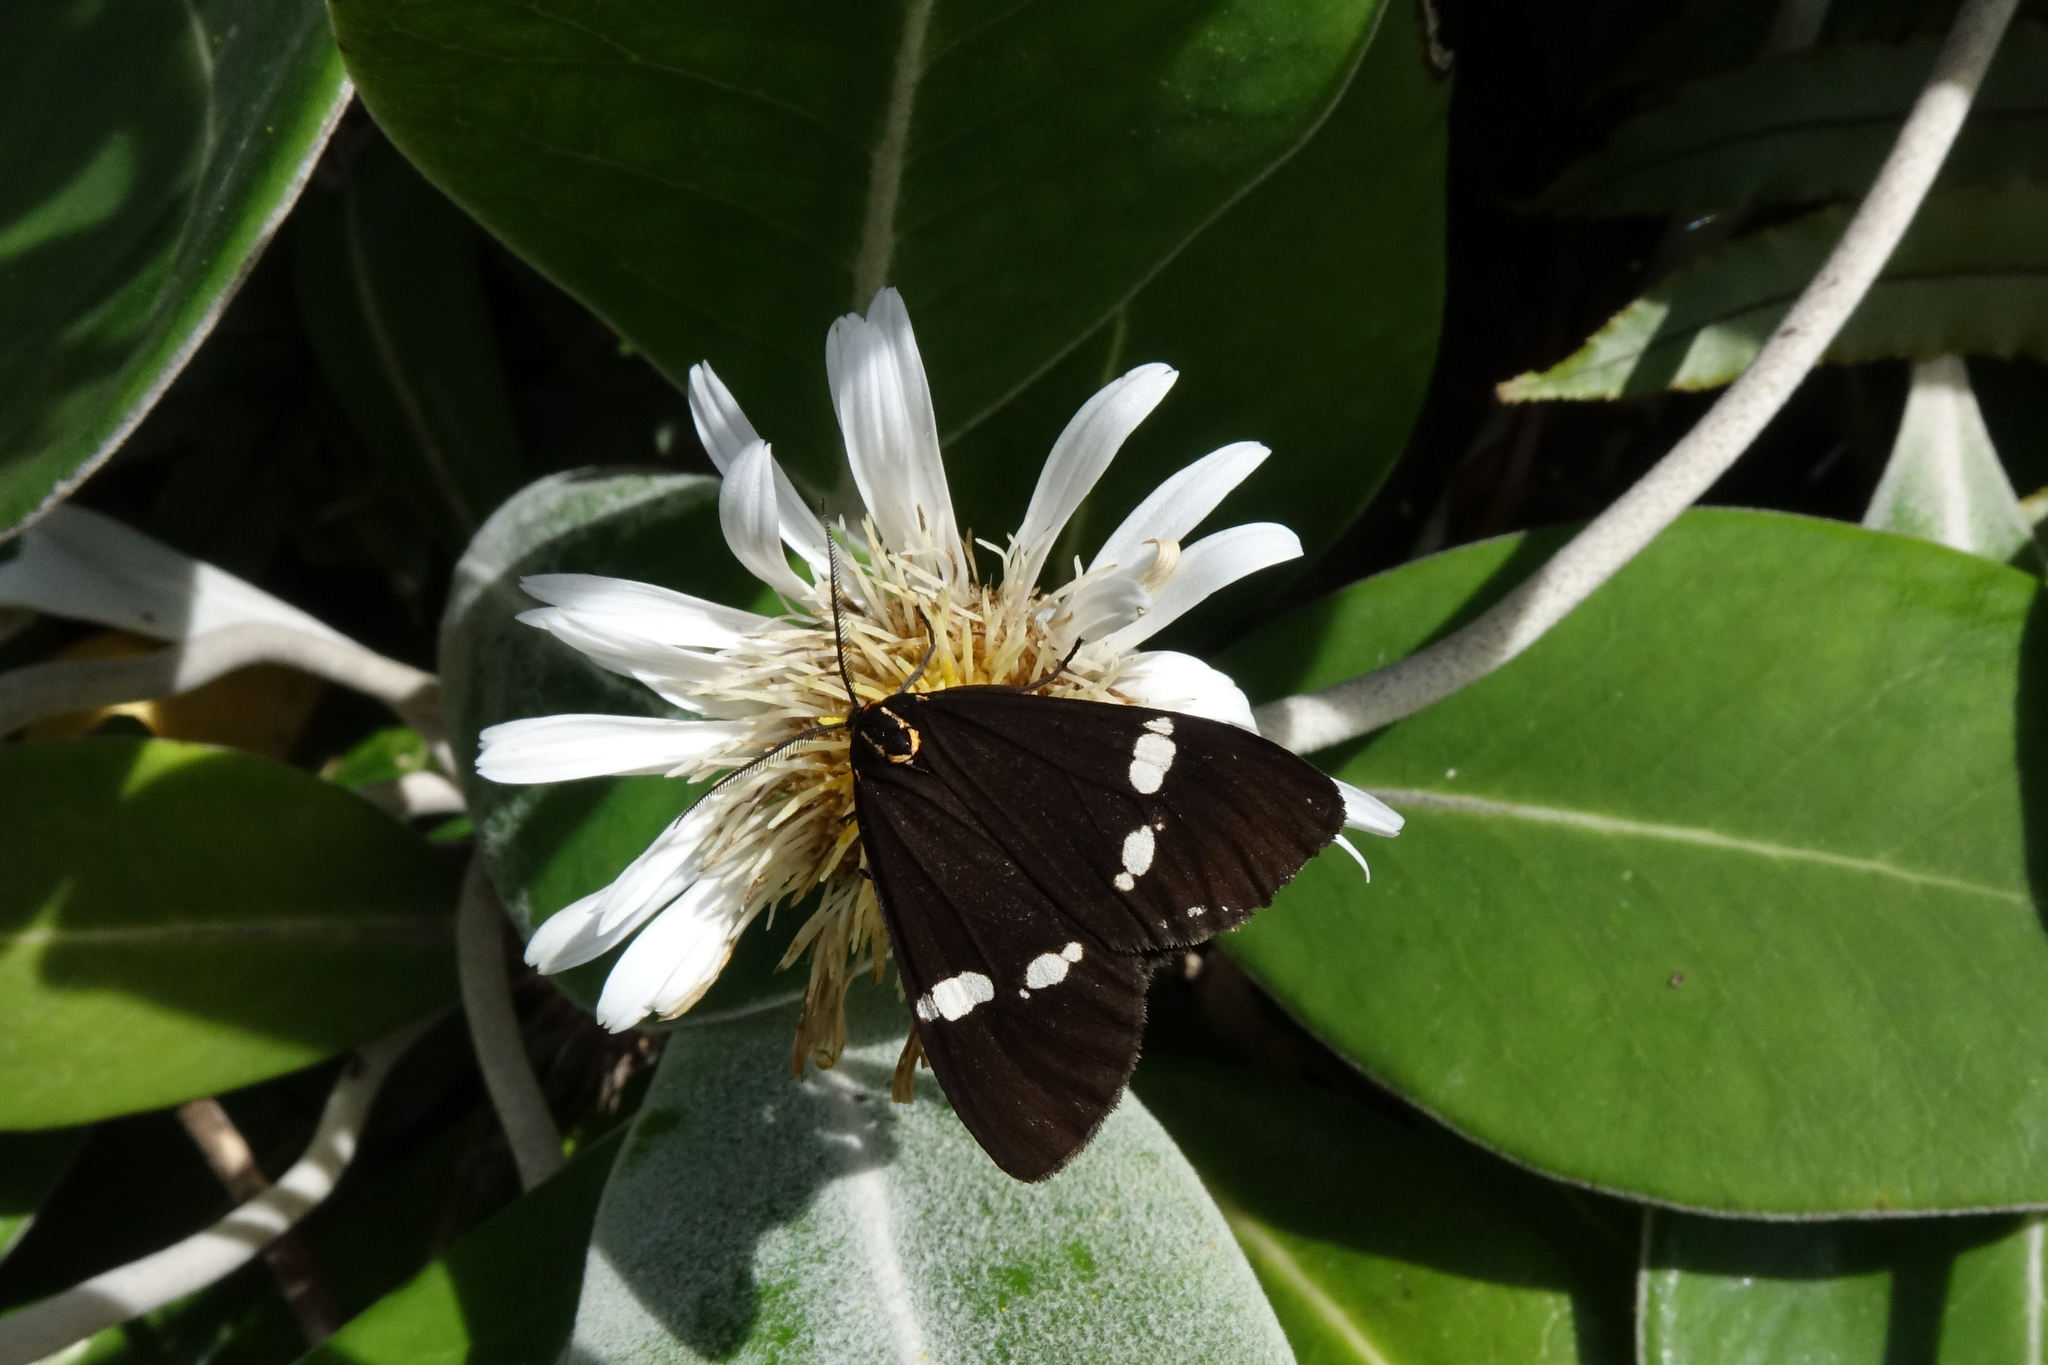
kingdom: Animalia
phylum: Arthropoda
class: Insecta
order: Lepidoptera
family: Erebidae
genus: Nyctemera
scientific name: Nyctemera annulatum
